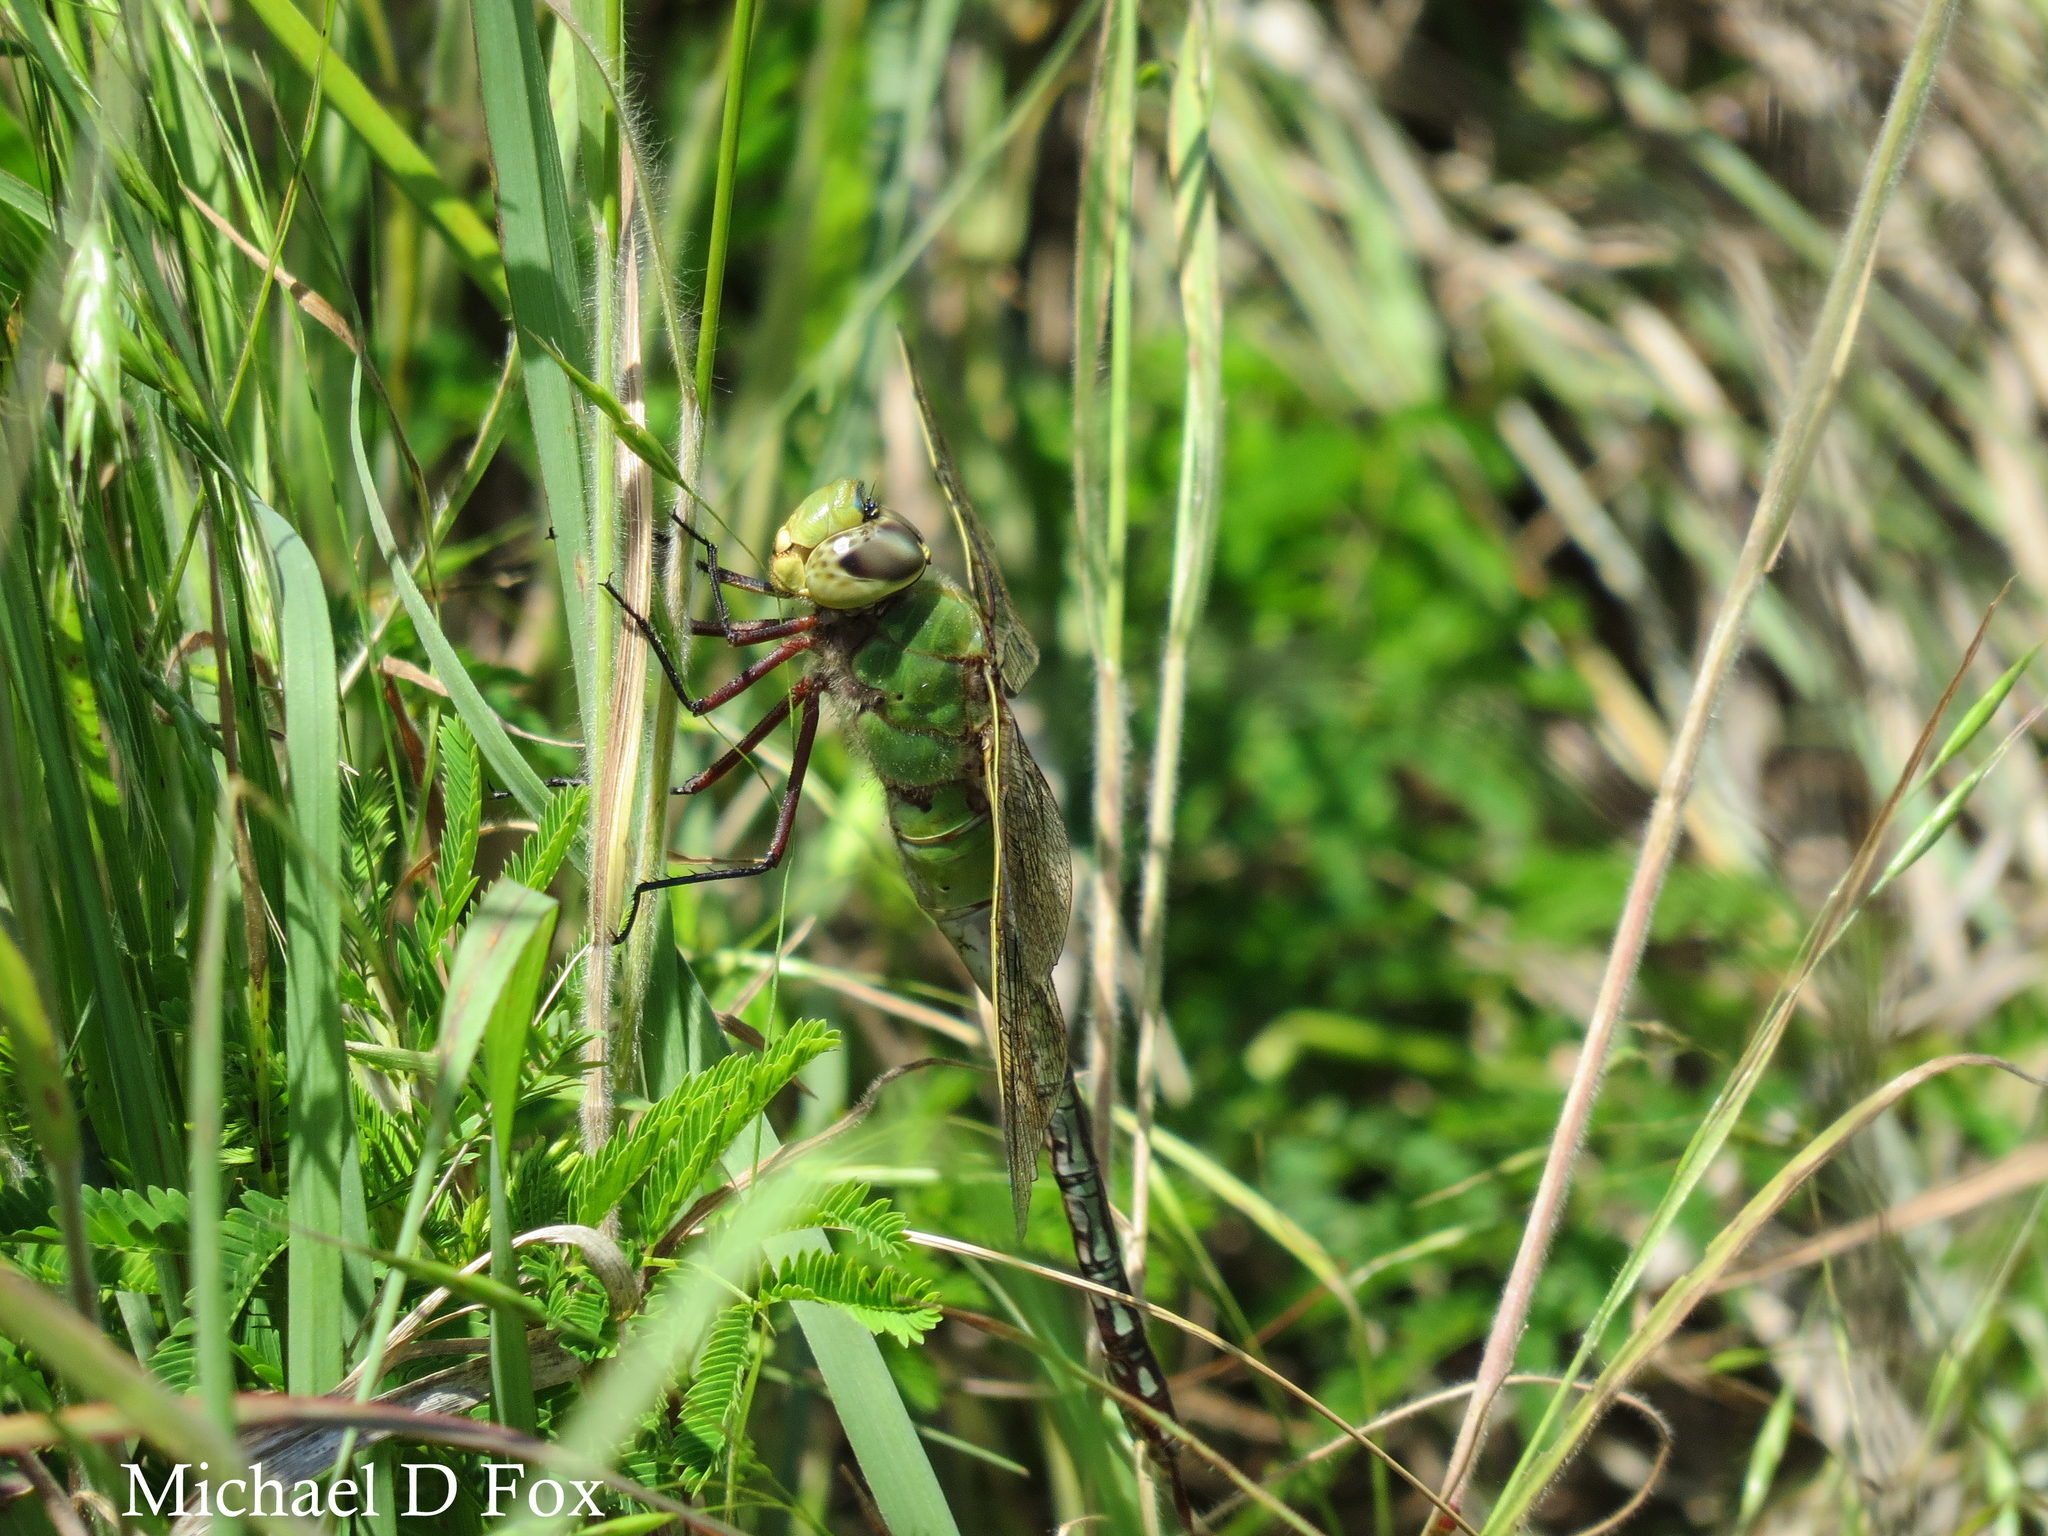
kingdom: Animalia
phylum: Arthropoda
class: Insecta
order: Odonata
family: Aeshnidae
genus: Anax
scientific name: Anax junius
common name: Common green darner
